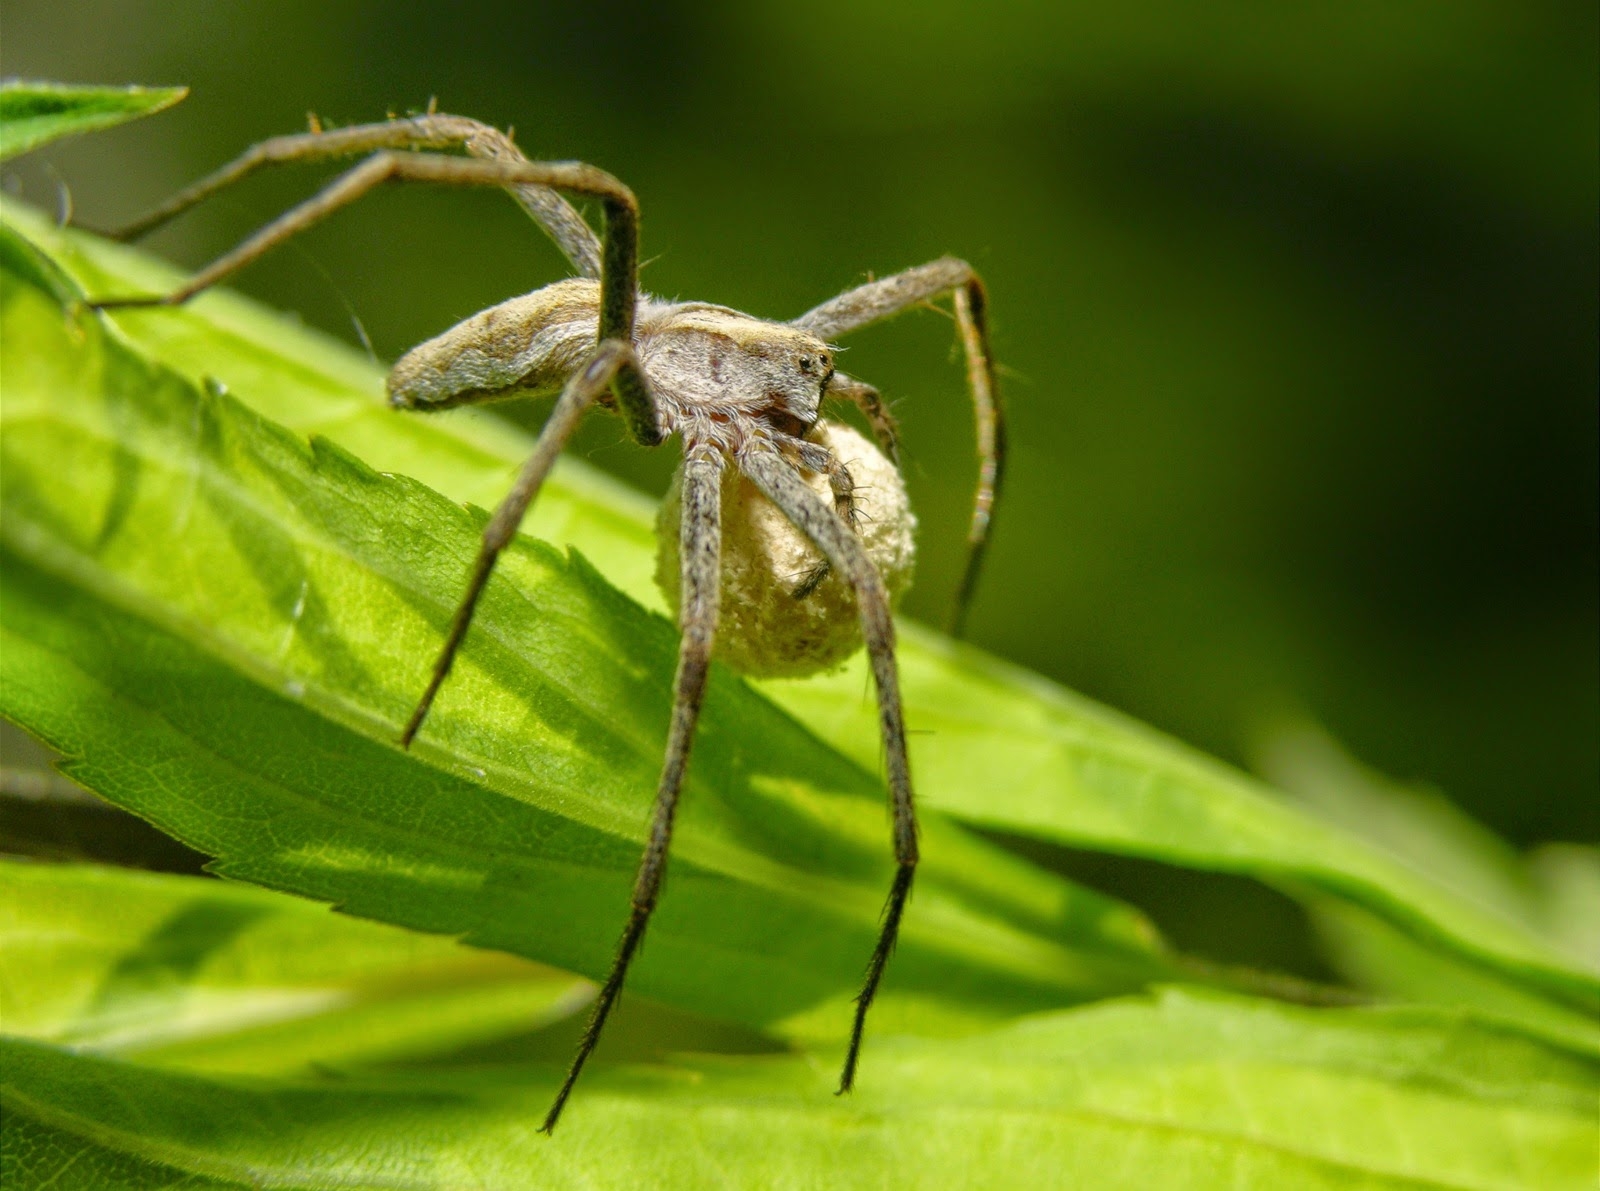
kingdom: Animalia
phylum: Arthropoda
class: Arachnida
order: Araneae
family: Pisauridae
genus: Pisaura
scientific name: Pisaura mirabilis
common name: Tent spider
